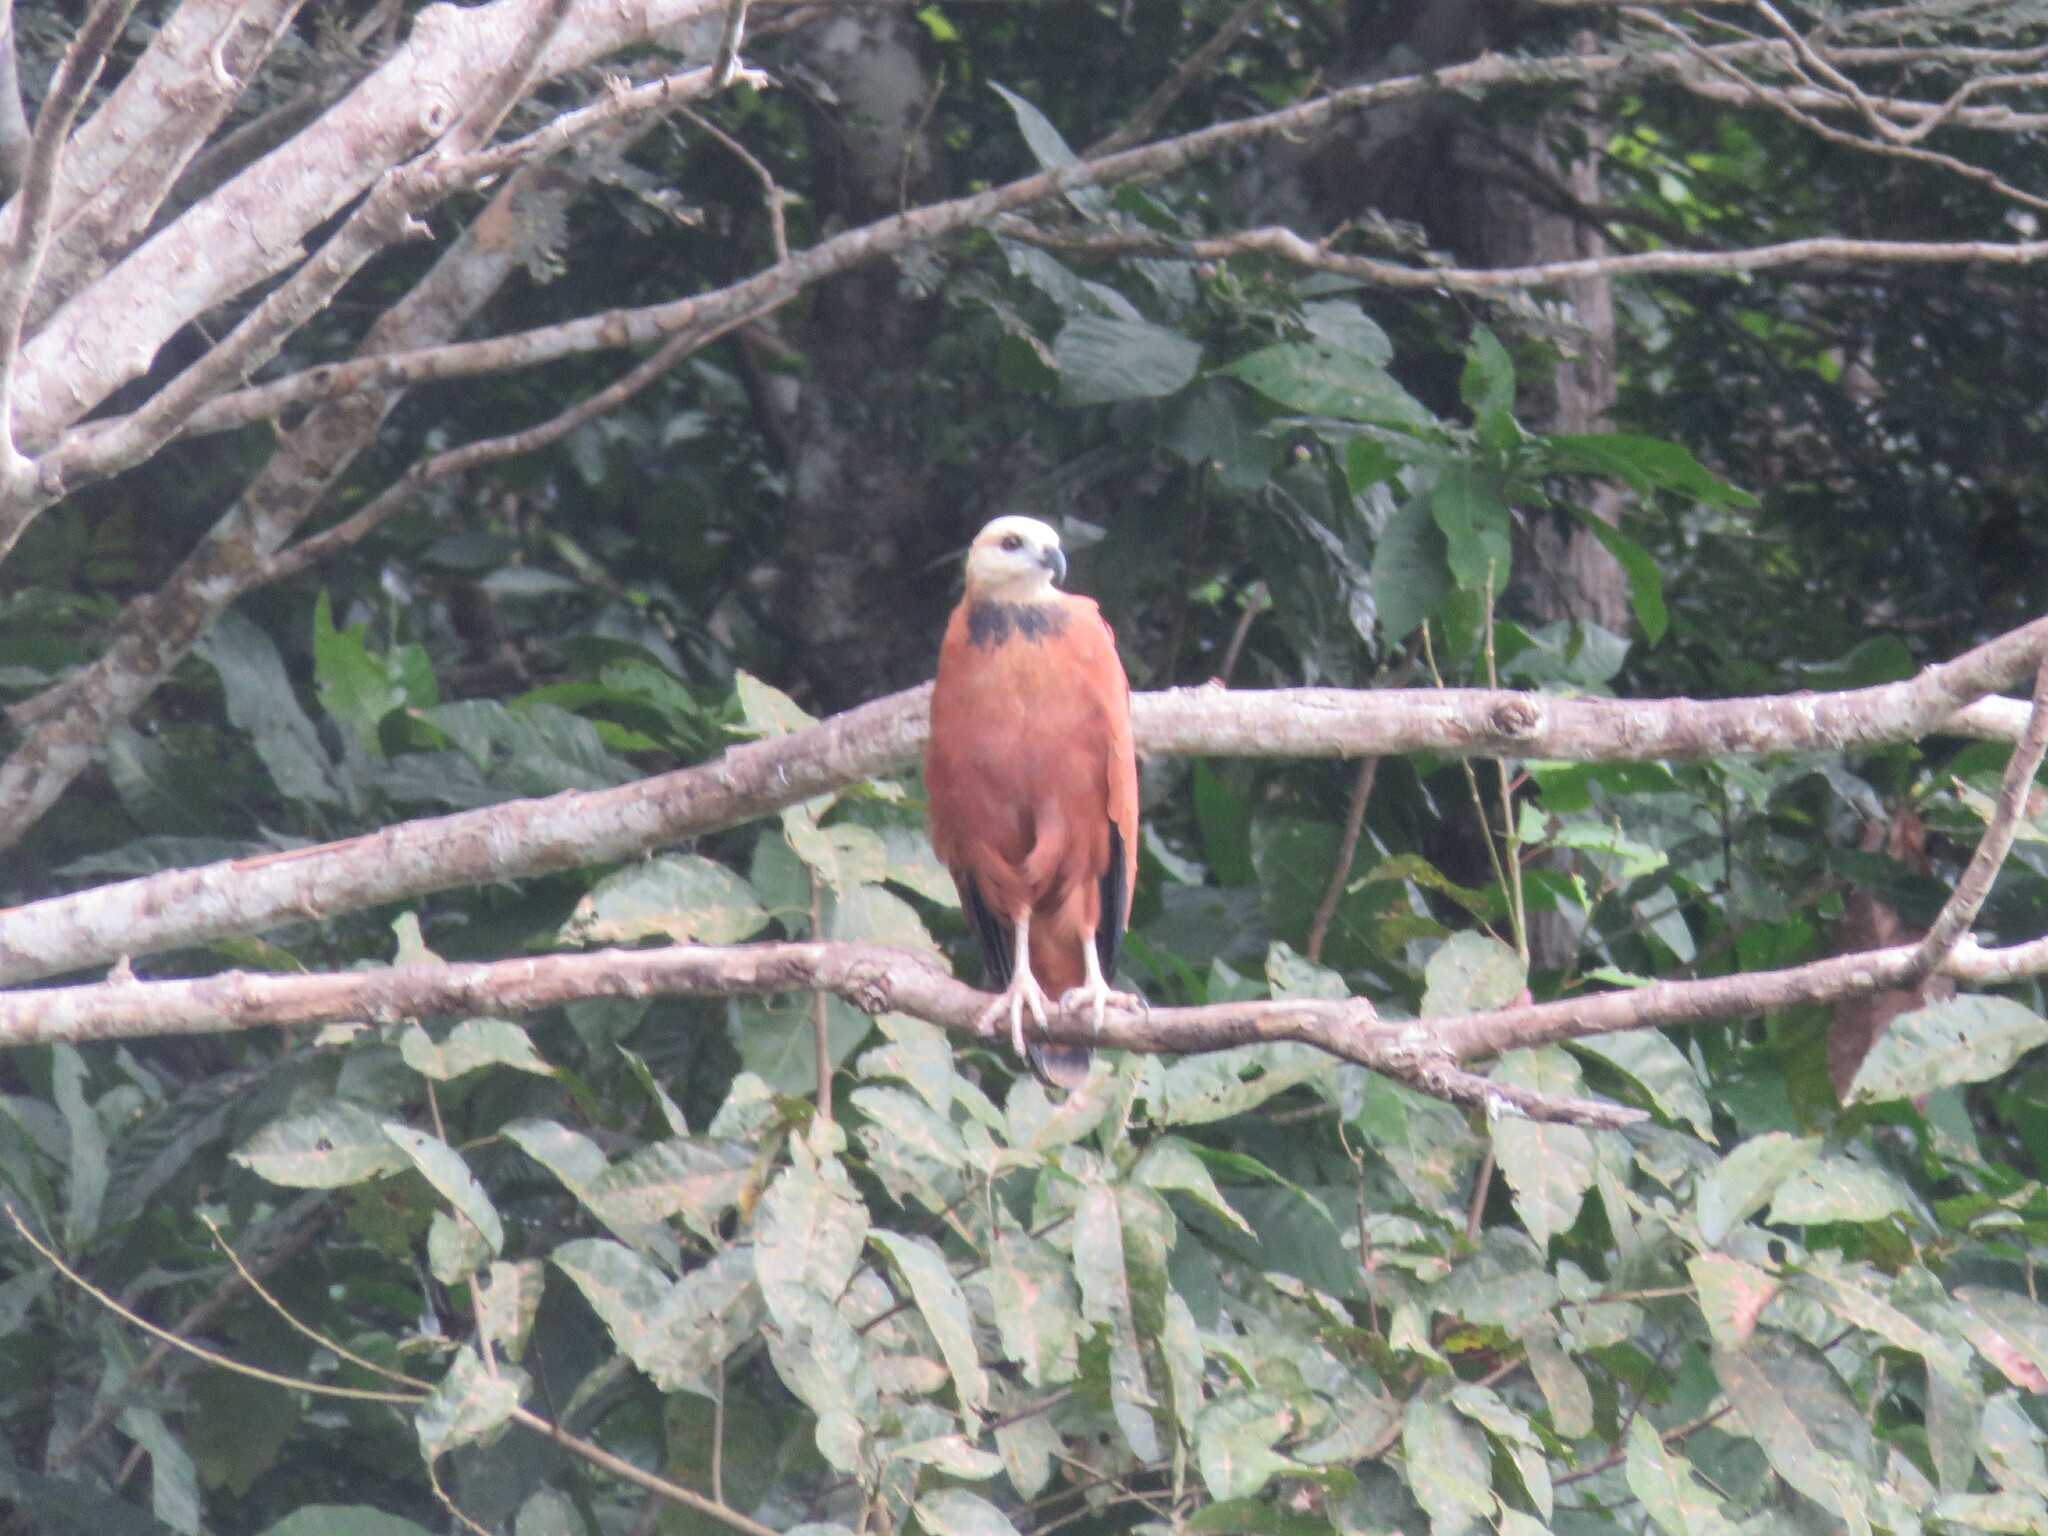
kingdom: Animalia
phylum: Chordata
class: Aves
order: Accipitriformes
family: Accipitridae
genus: Busarellus
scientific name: Busarellus nigricollis
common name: Black-collared hawk
